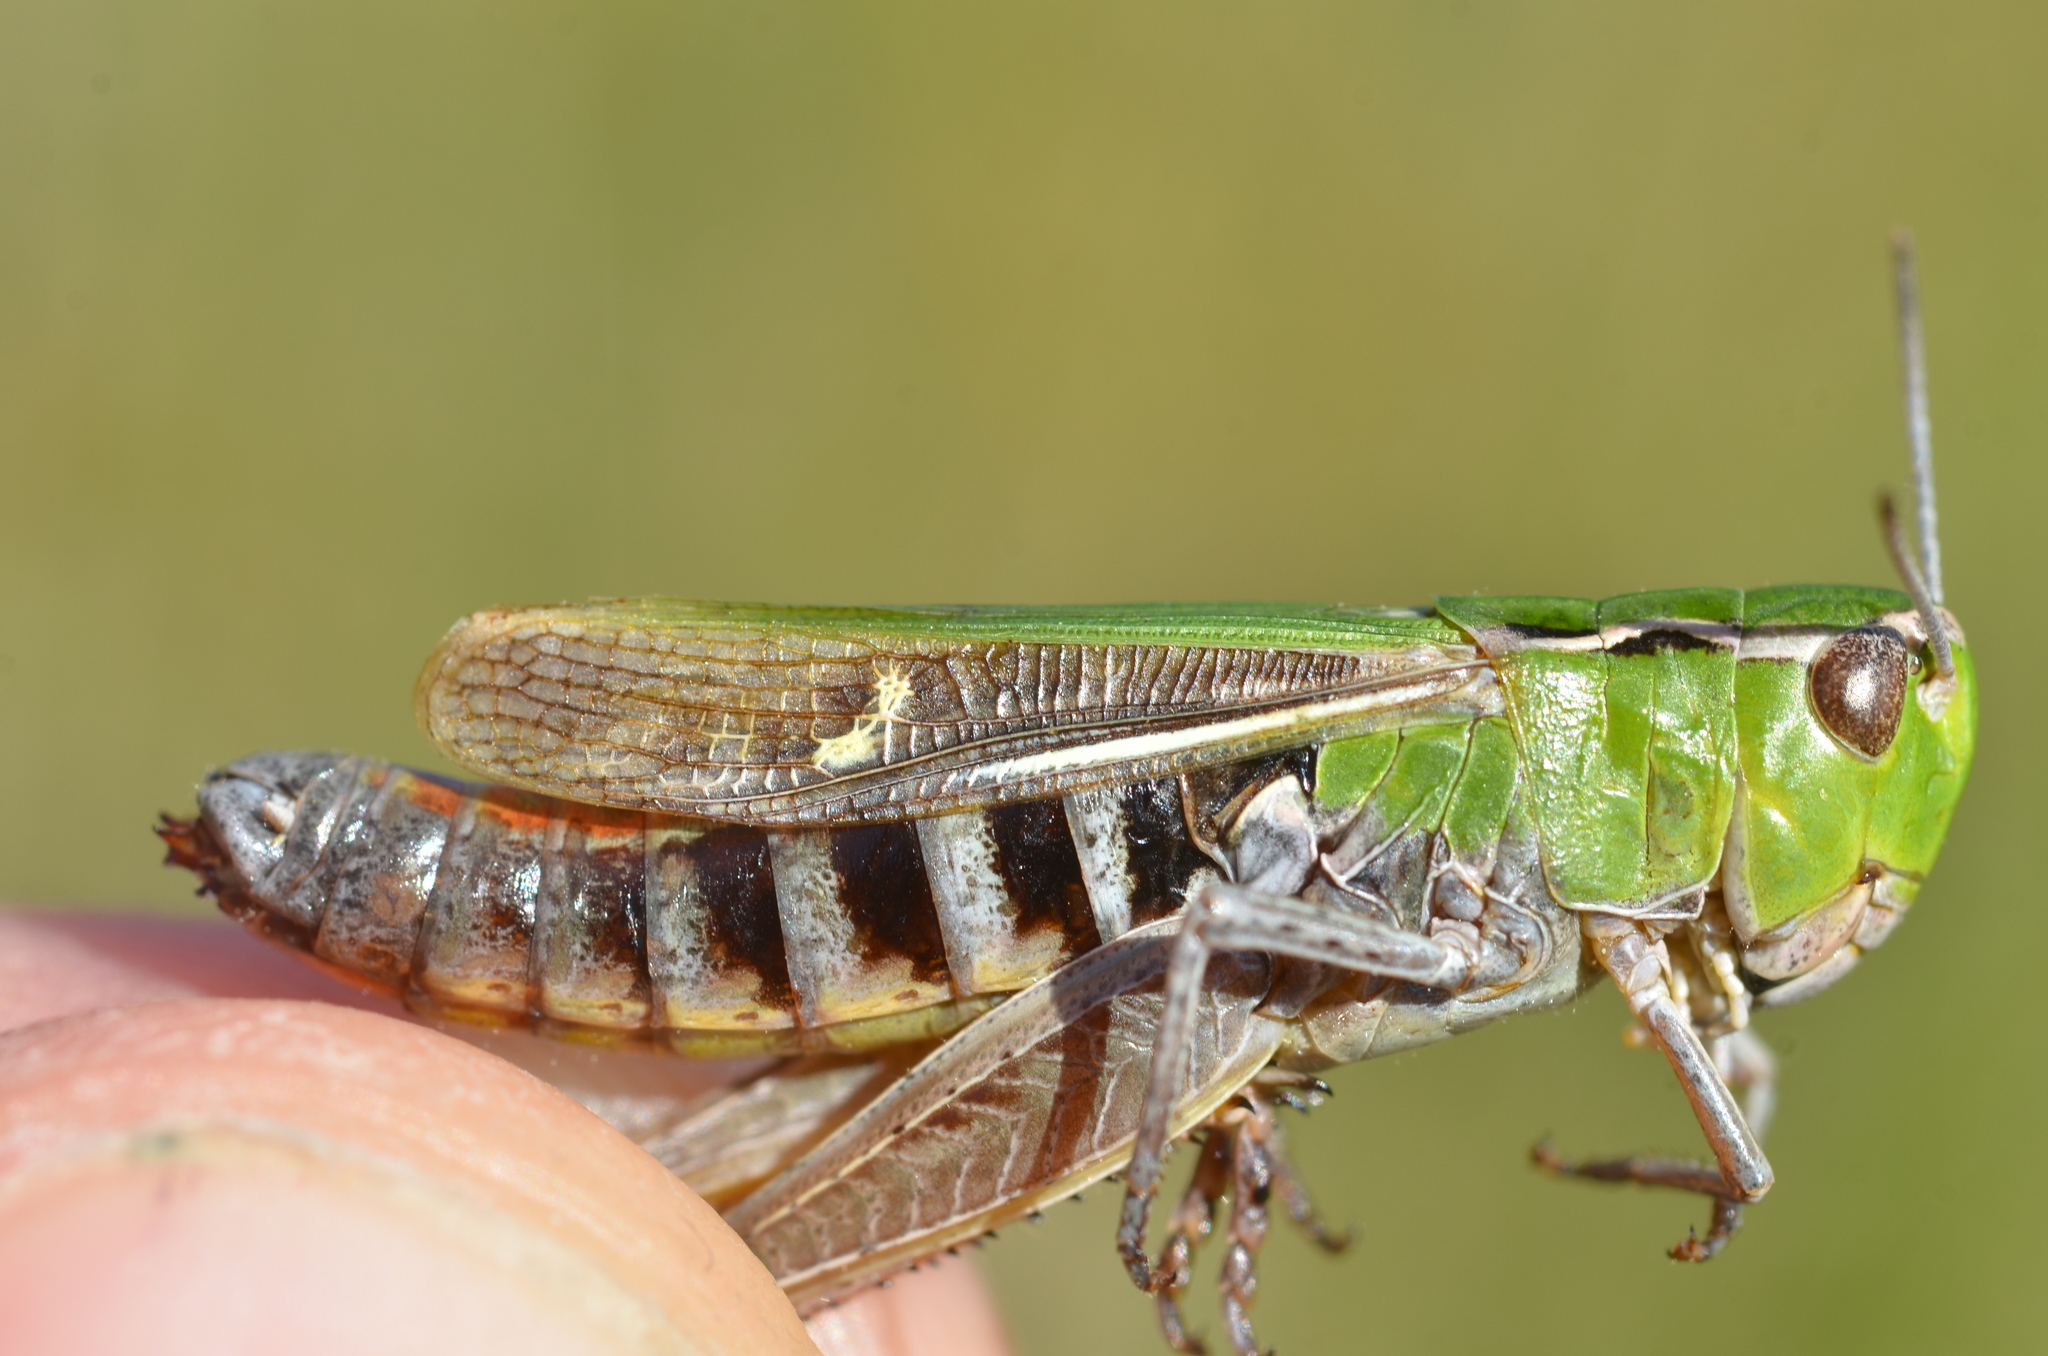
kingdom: Animalia
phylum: Arthropoda
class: Insecta
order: Orthoptera
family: Acrididae
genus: Stenobothrus
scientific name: Stenobothrus lineatus
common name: Stripe-winged grasshopper
